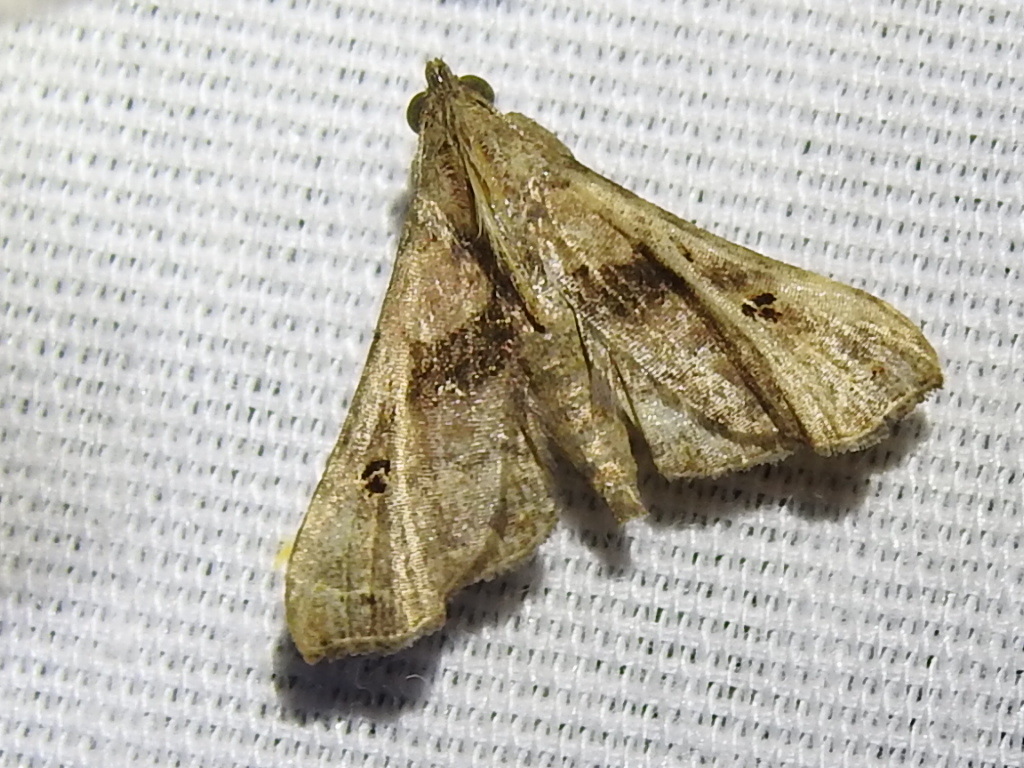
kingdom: Animalia
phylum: Arthropoda
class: Insecta
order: Lepidoptera
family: Erebidae
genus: Palthis
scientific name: Palthis asopialis
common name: Faint-spotted palthis moth
